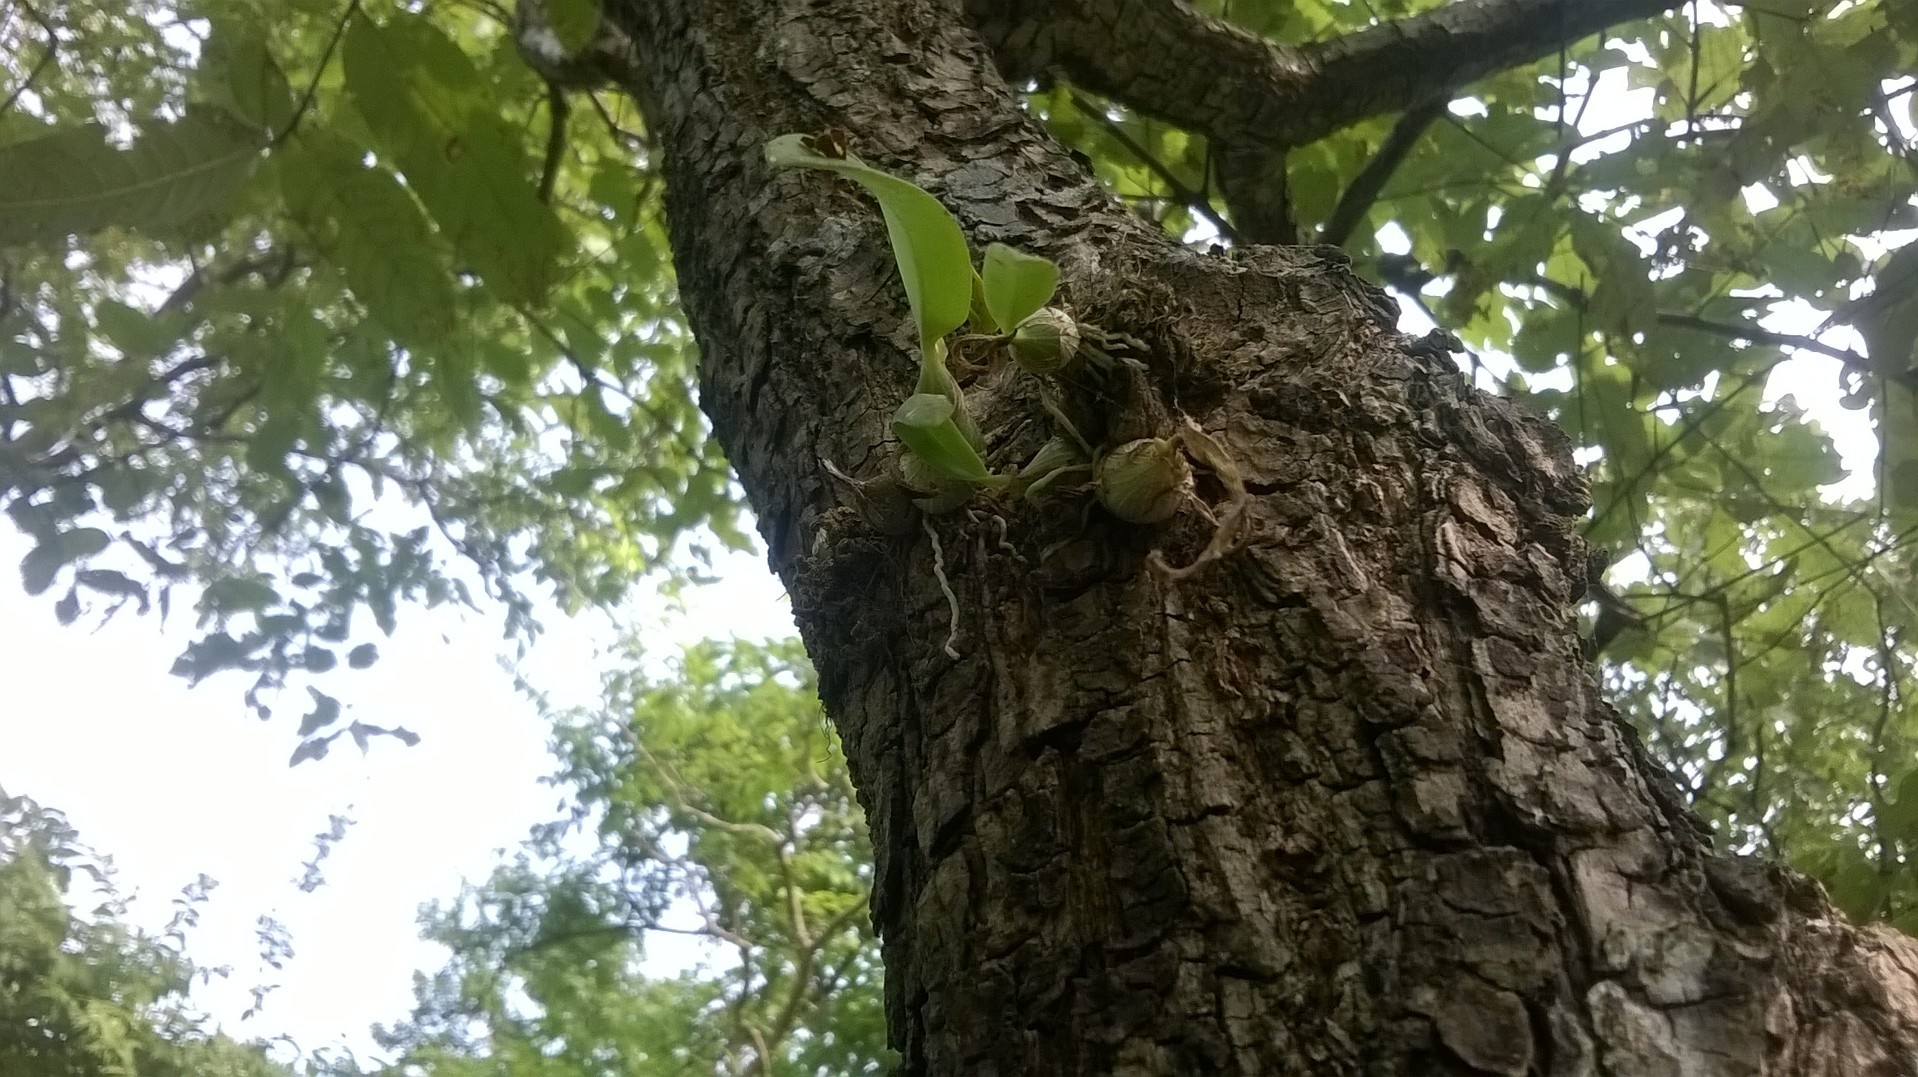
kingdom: Plantae
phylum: Tracheophyta
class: Liliopsida
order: Asparagales
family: Orchidaceae
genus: Dendrobium
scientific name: Dendrobium microbulbon
